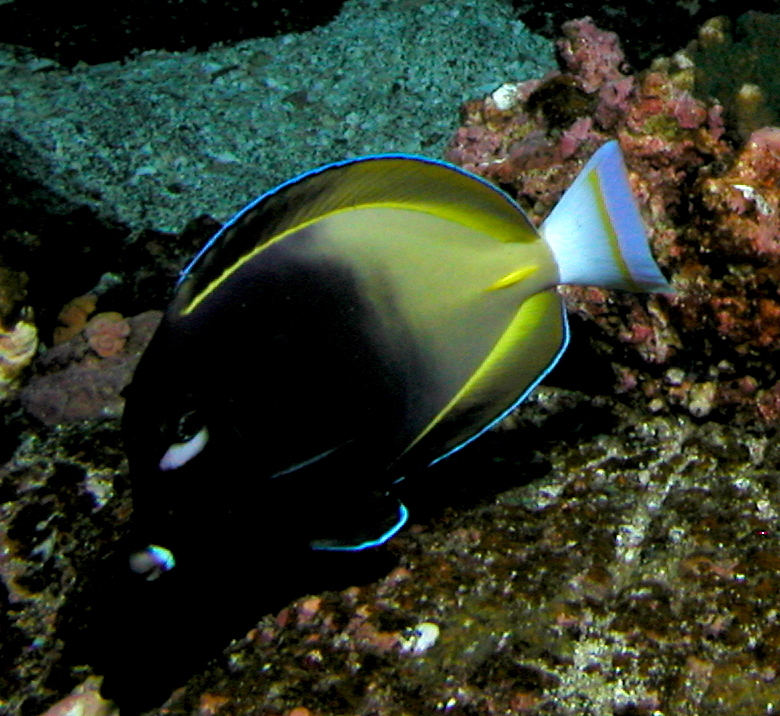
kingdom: Animalia
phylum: Chordata
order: Perciformes
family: Acanthuridae
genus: Acanthurus
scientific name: Acanthurus nigricans
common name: Whitecheek surgeonfish
